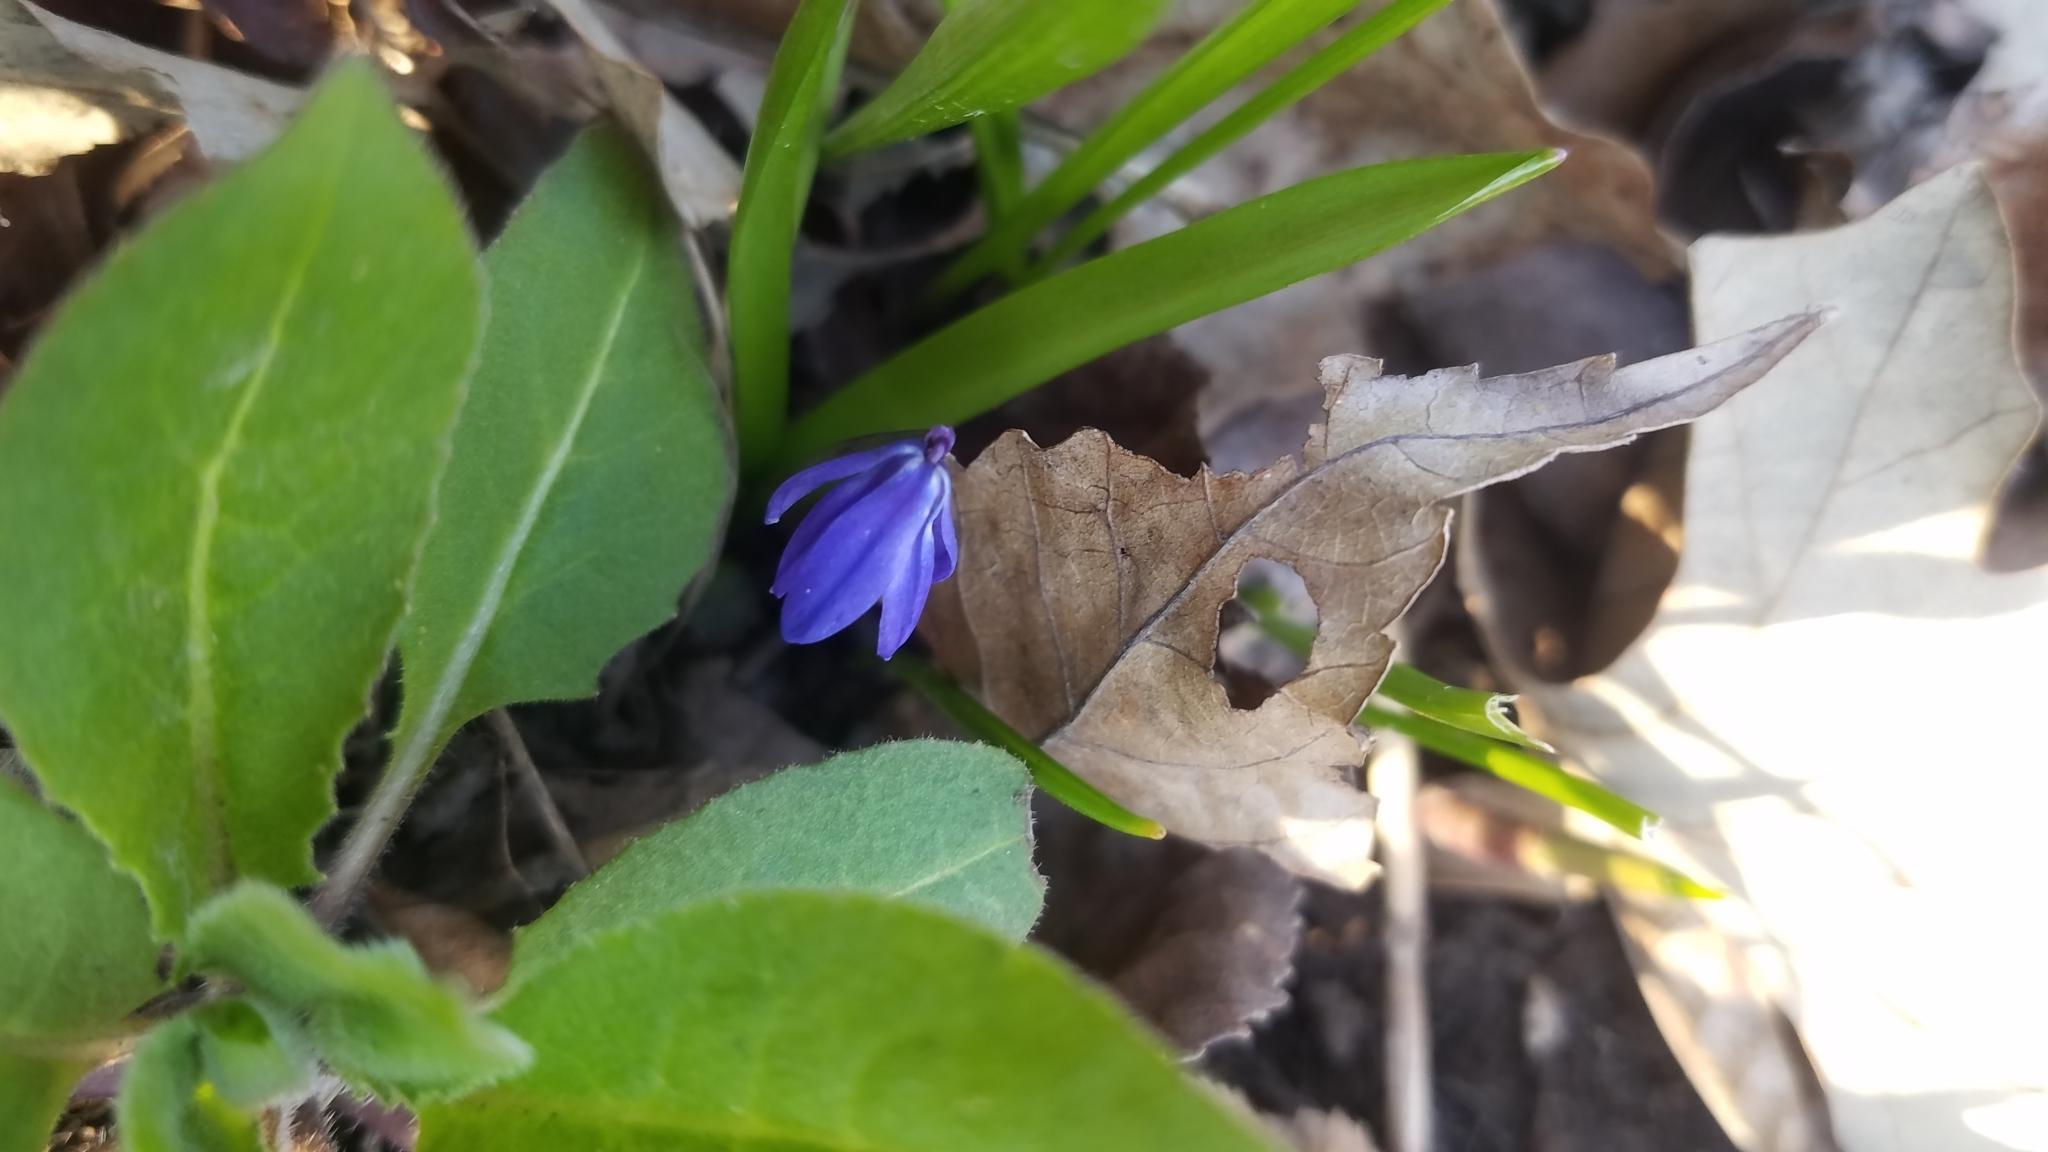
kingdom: Plantae
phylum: Tracheophyta
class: Liliopsida
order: Asparagales
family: Asparagaceae
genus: Scilla
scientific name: Scilla siberica
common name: Siberian squill
